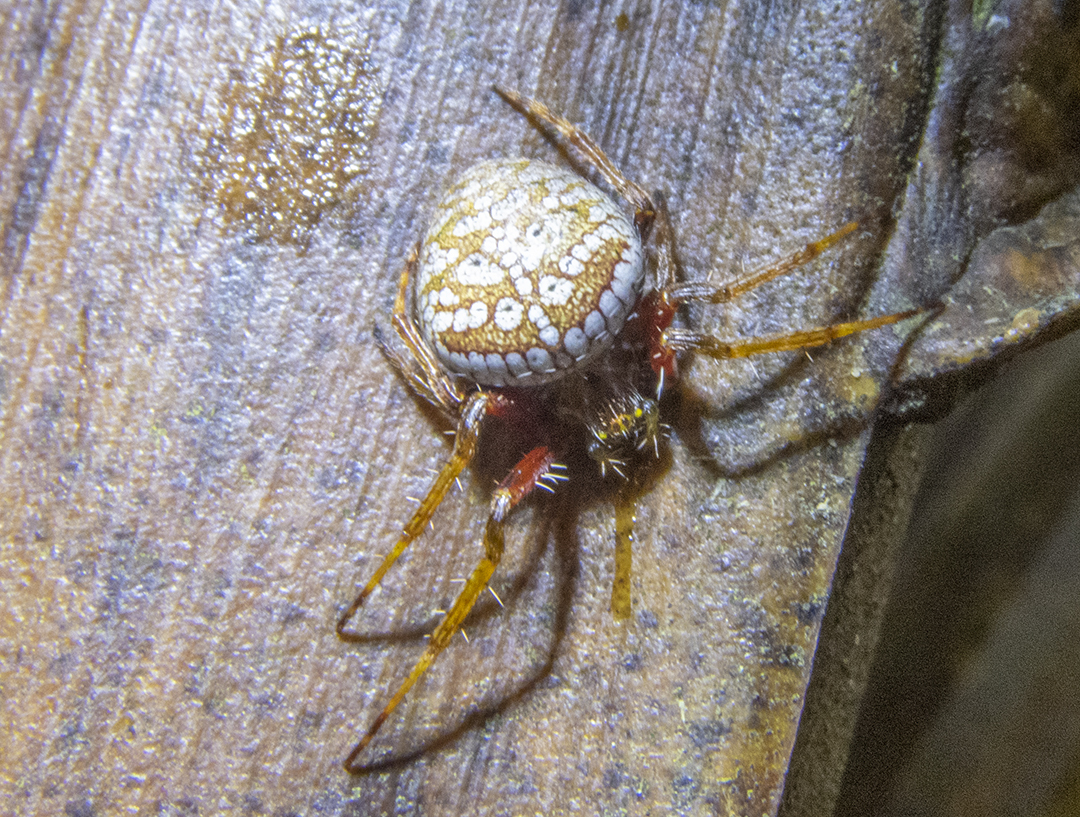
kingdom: Animalia
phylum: Arthropoda
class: Arachnida
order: Araneae
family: Araneidae
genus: Zealaranea
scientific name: Zealaranea crassa
